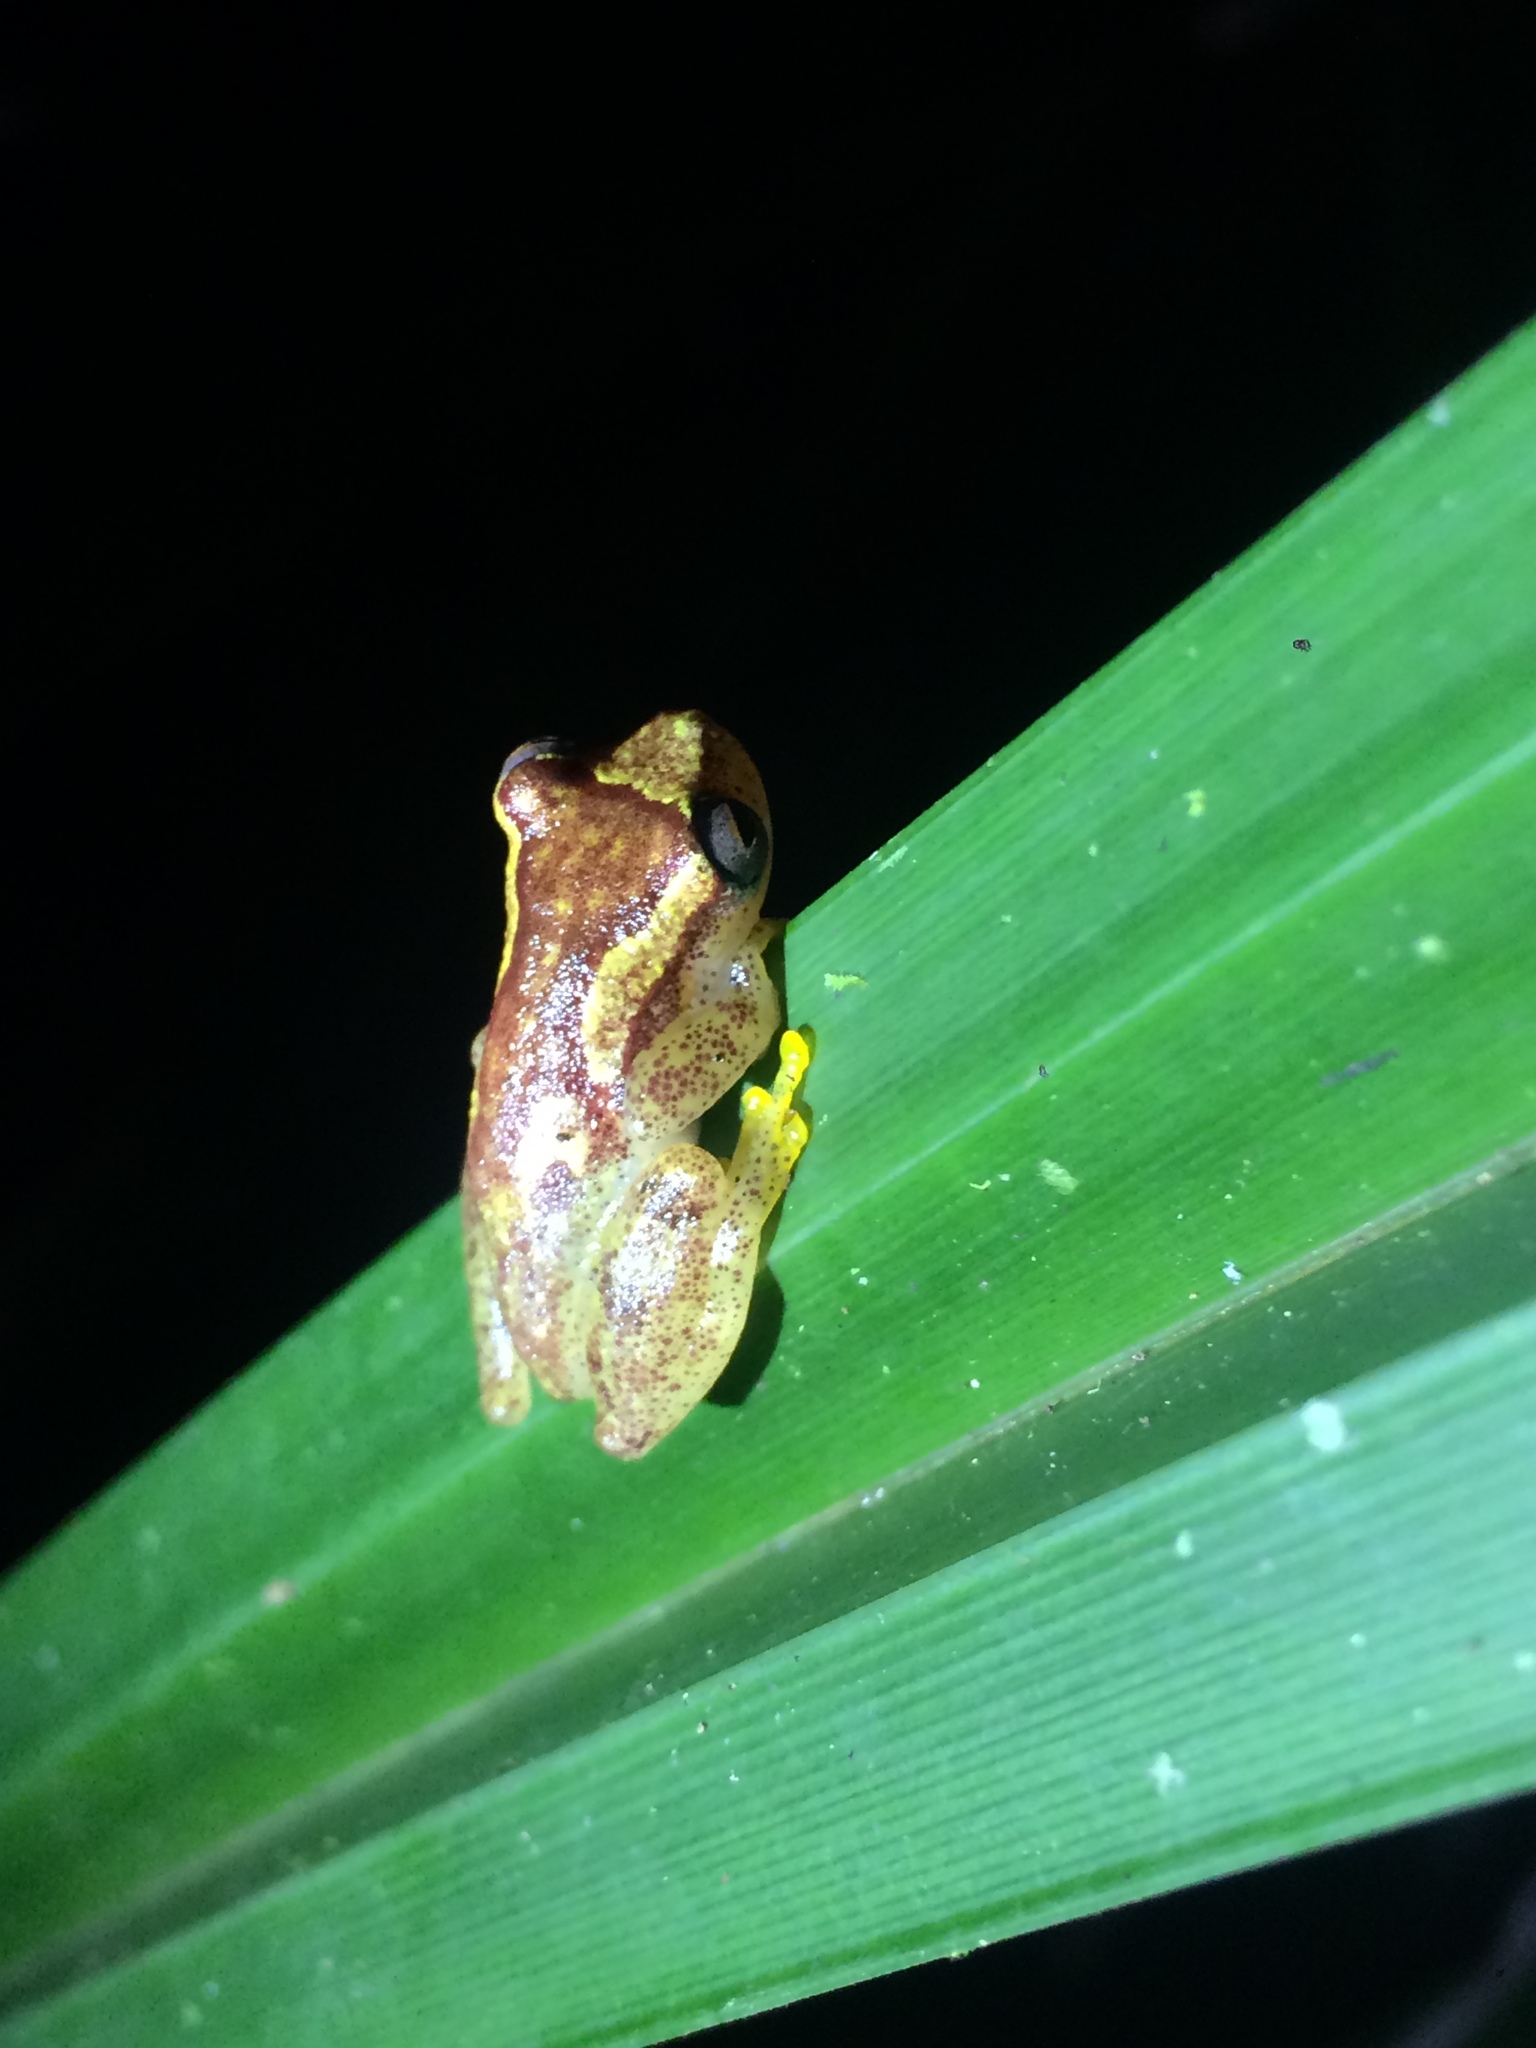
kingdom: Animalia
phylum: Chordata
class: Amphibia
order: Anura
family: Hylidae
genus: Dendropsophus
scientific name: Dendropsophus haddadi
